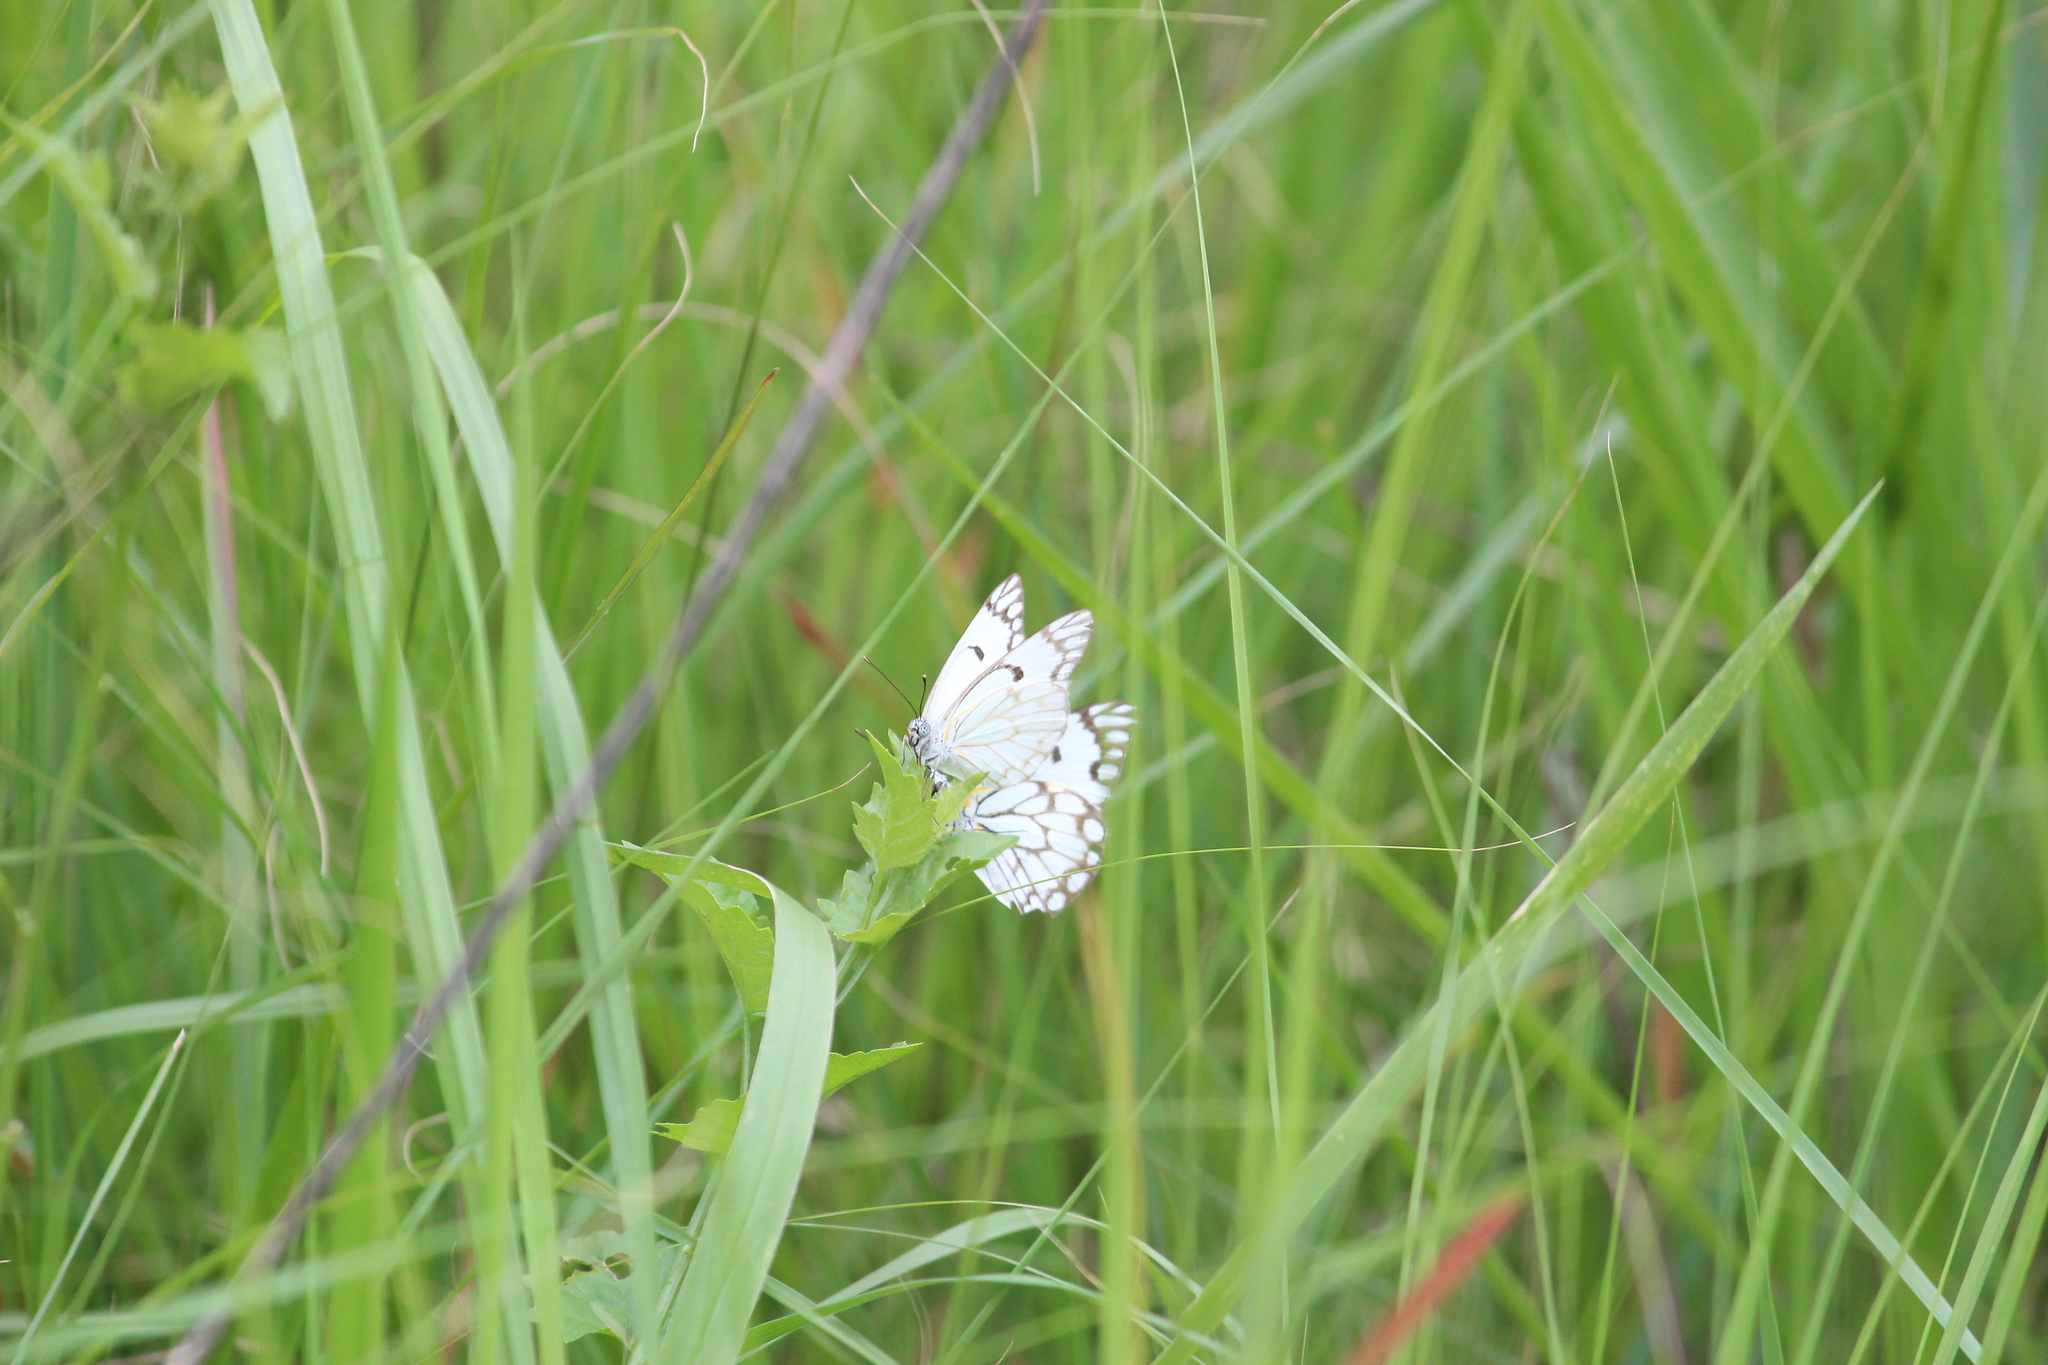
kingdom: Animalia
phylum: Arthropoda
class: Insecta
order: Lepidoptera
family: Pieridae
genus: Belenois
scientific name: Belenois aurota
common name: Brown-veined white
